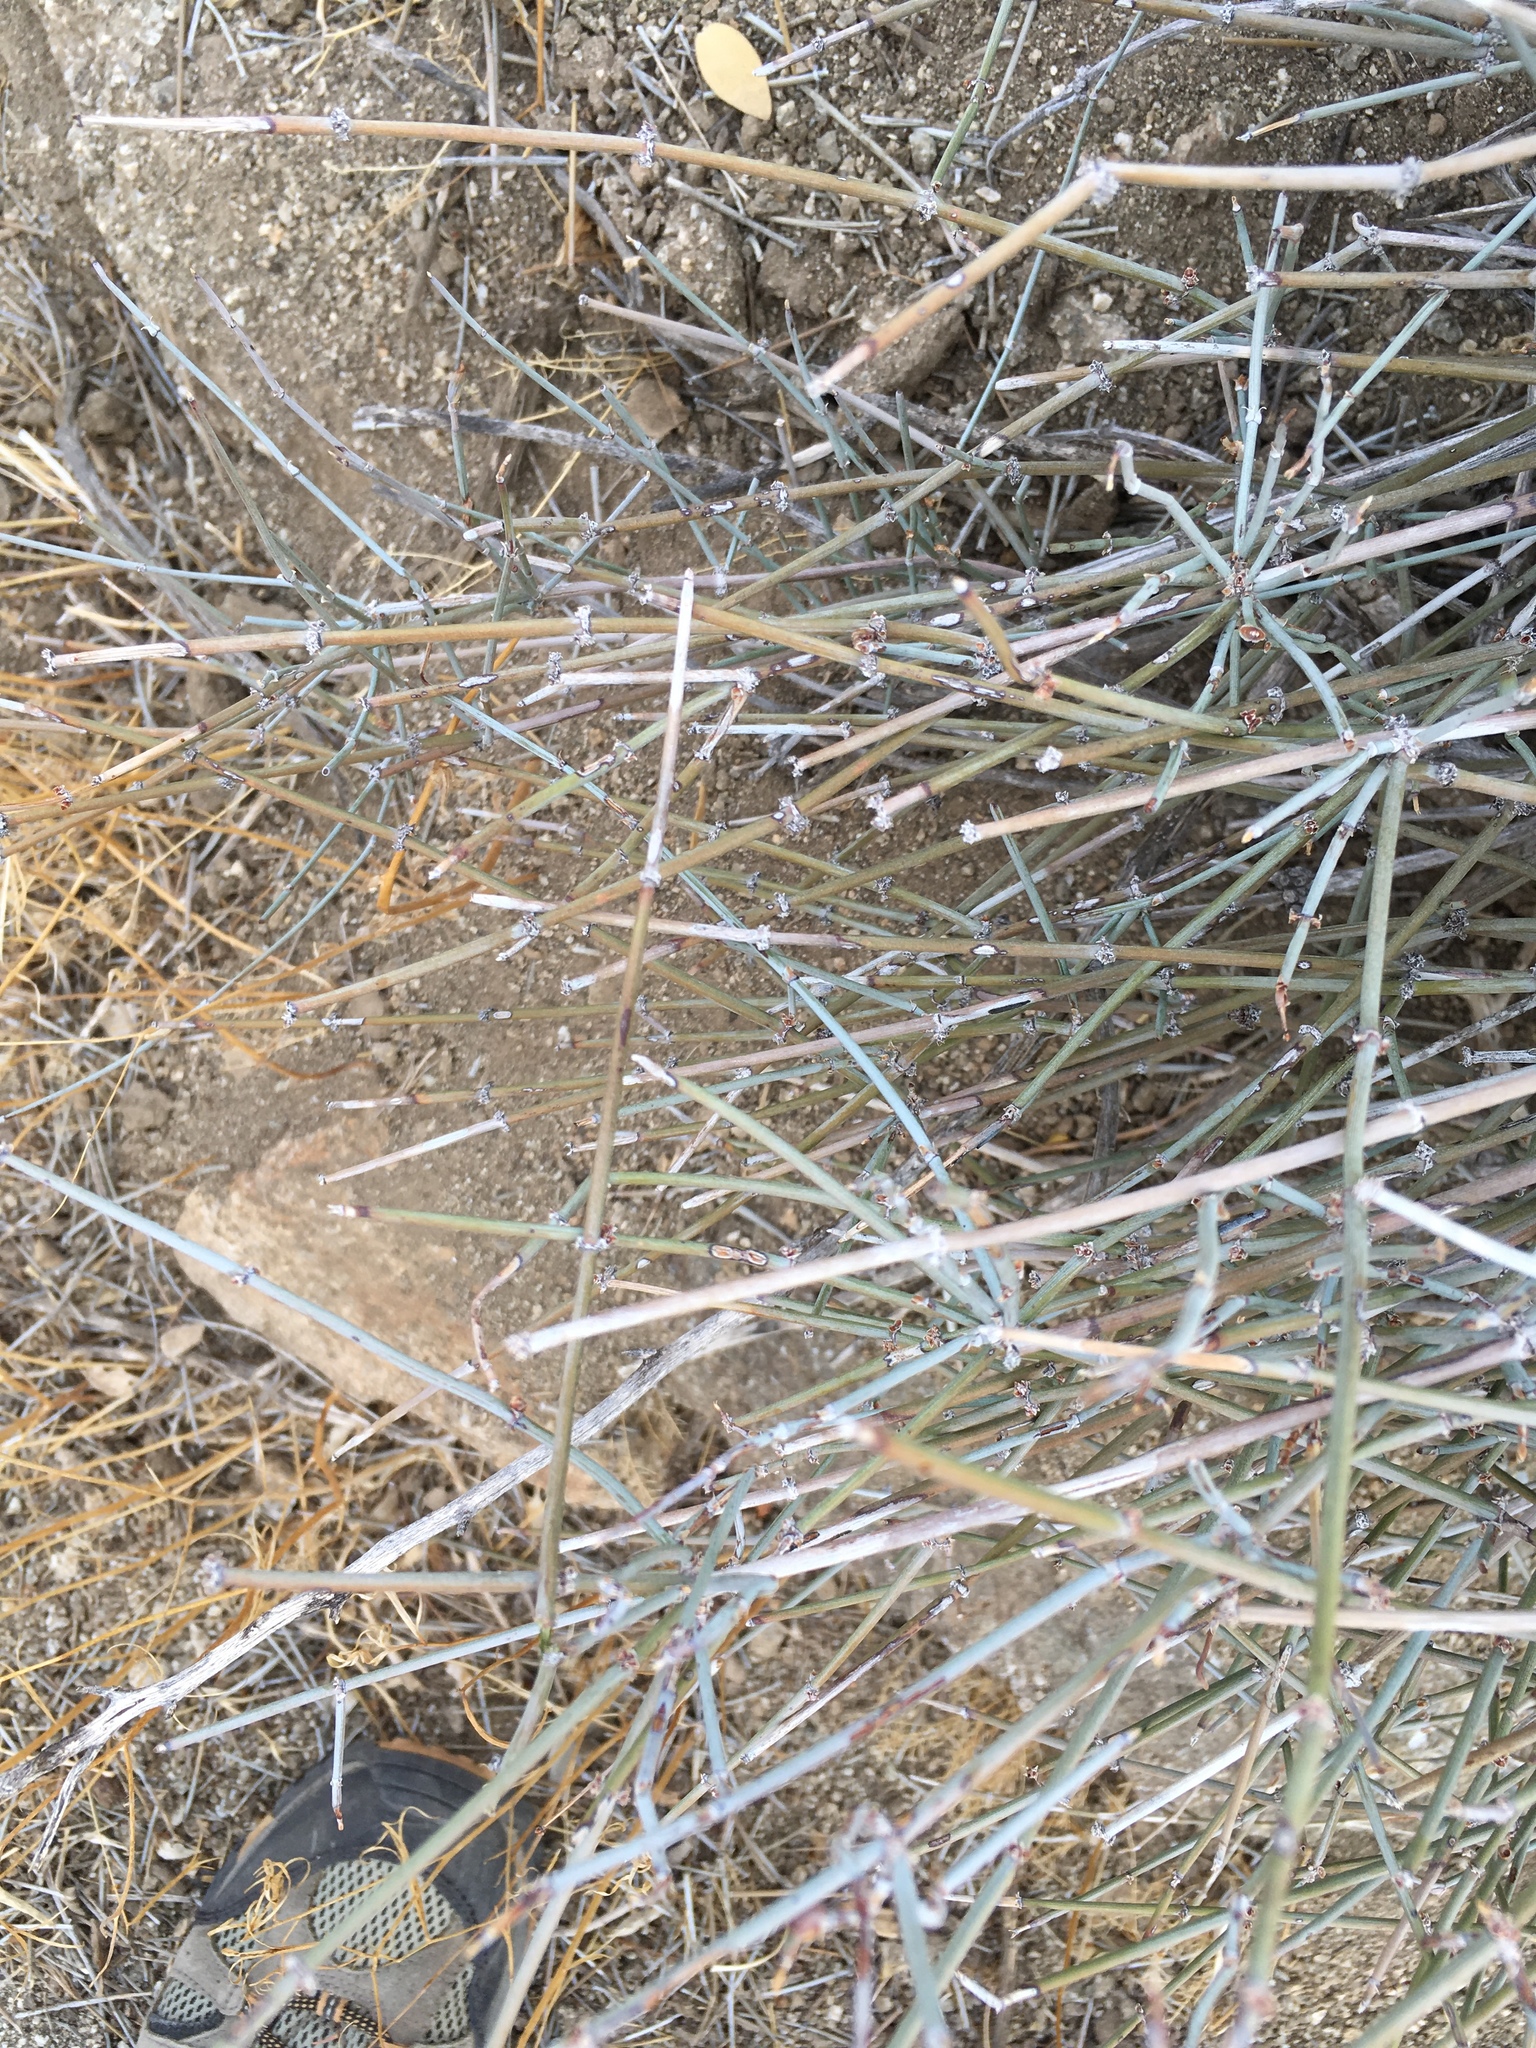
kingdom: Plantae
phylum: Tracheophyta
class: Gnetopsida
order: Ephedrales
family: Ephedraceae
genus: Ephedra
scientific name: Ephedra aspera
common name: Boundary ephedra
